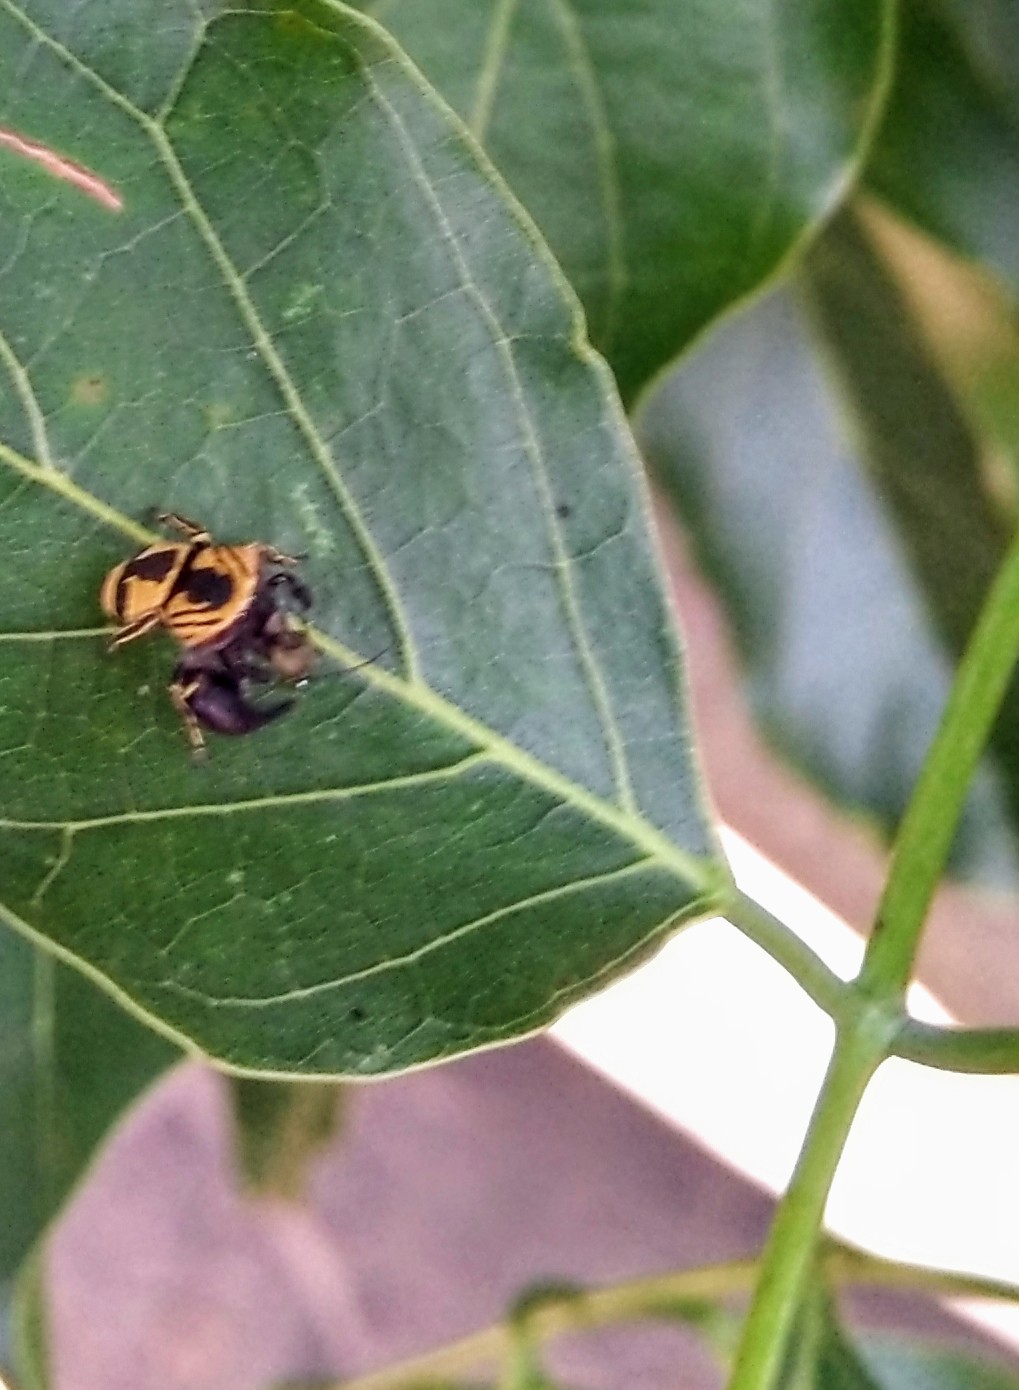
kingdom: Animalia
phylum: Arthropoda
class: Arachnida
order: Araneae
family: Salticidae
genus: Rhene
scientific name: Rhene flavicomans
